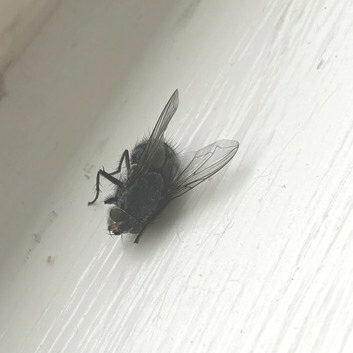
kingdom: Animalia
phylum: Arthropoda
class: Insecta
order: Diptera
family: Calliphoridae
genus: Calliphora
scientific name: Calliphora vicina
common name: Common blow flie
